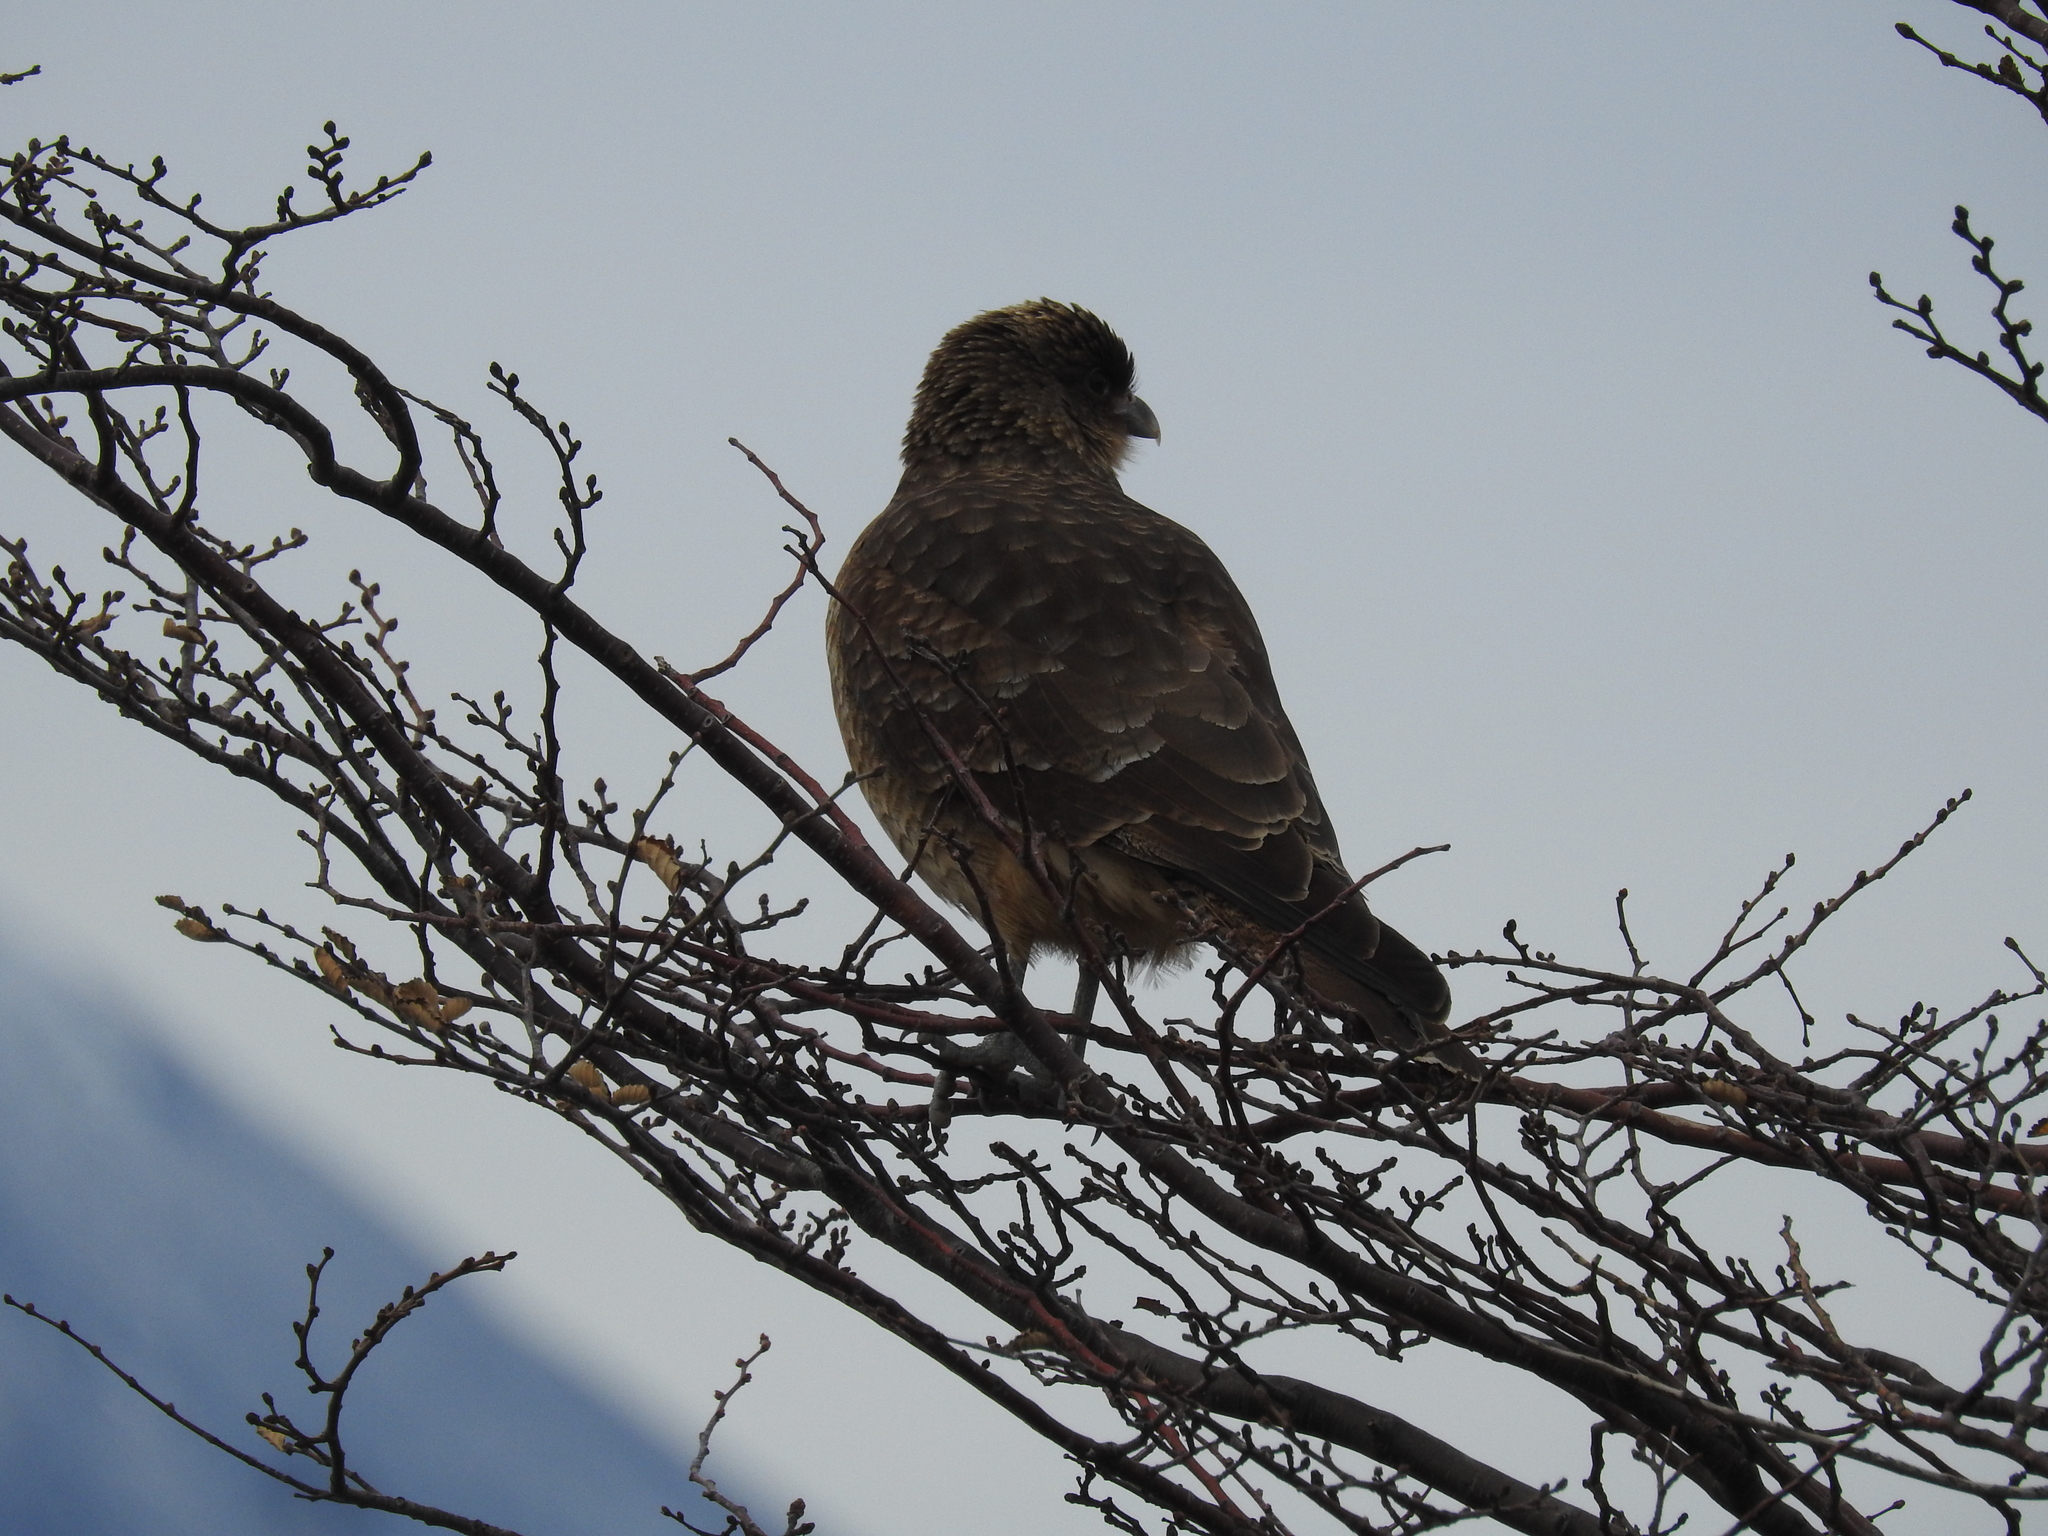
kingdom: Animalia
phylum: Chordata
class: Aves
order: Falconiformes
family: Falconidae
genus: Daptrius
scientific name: Daptrius
